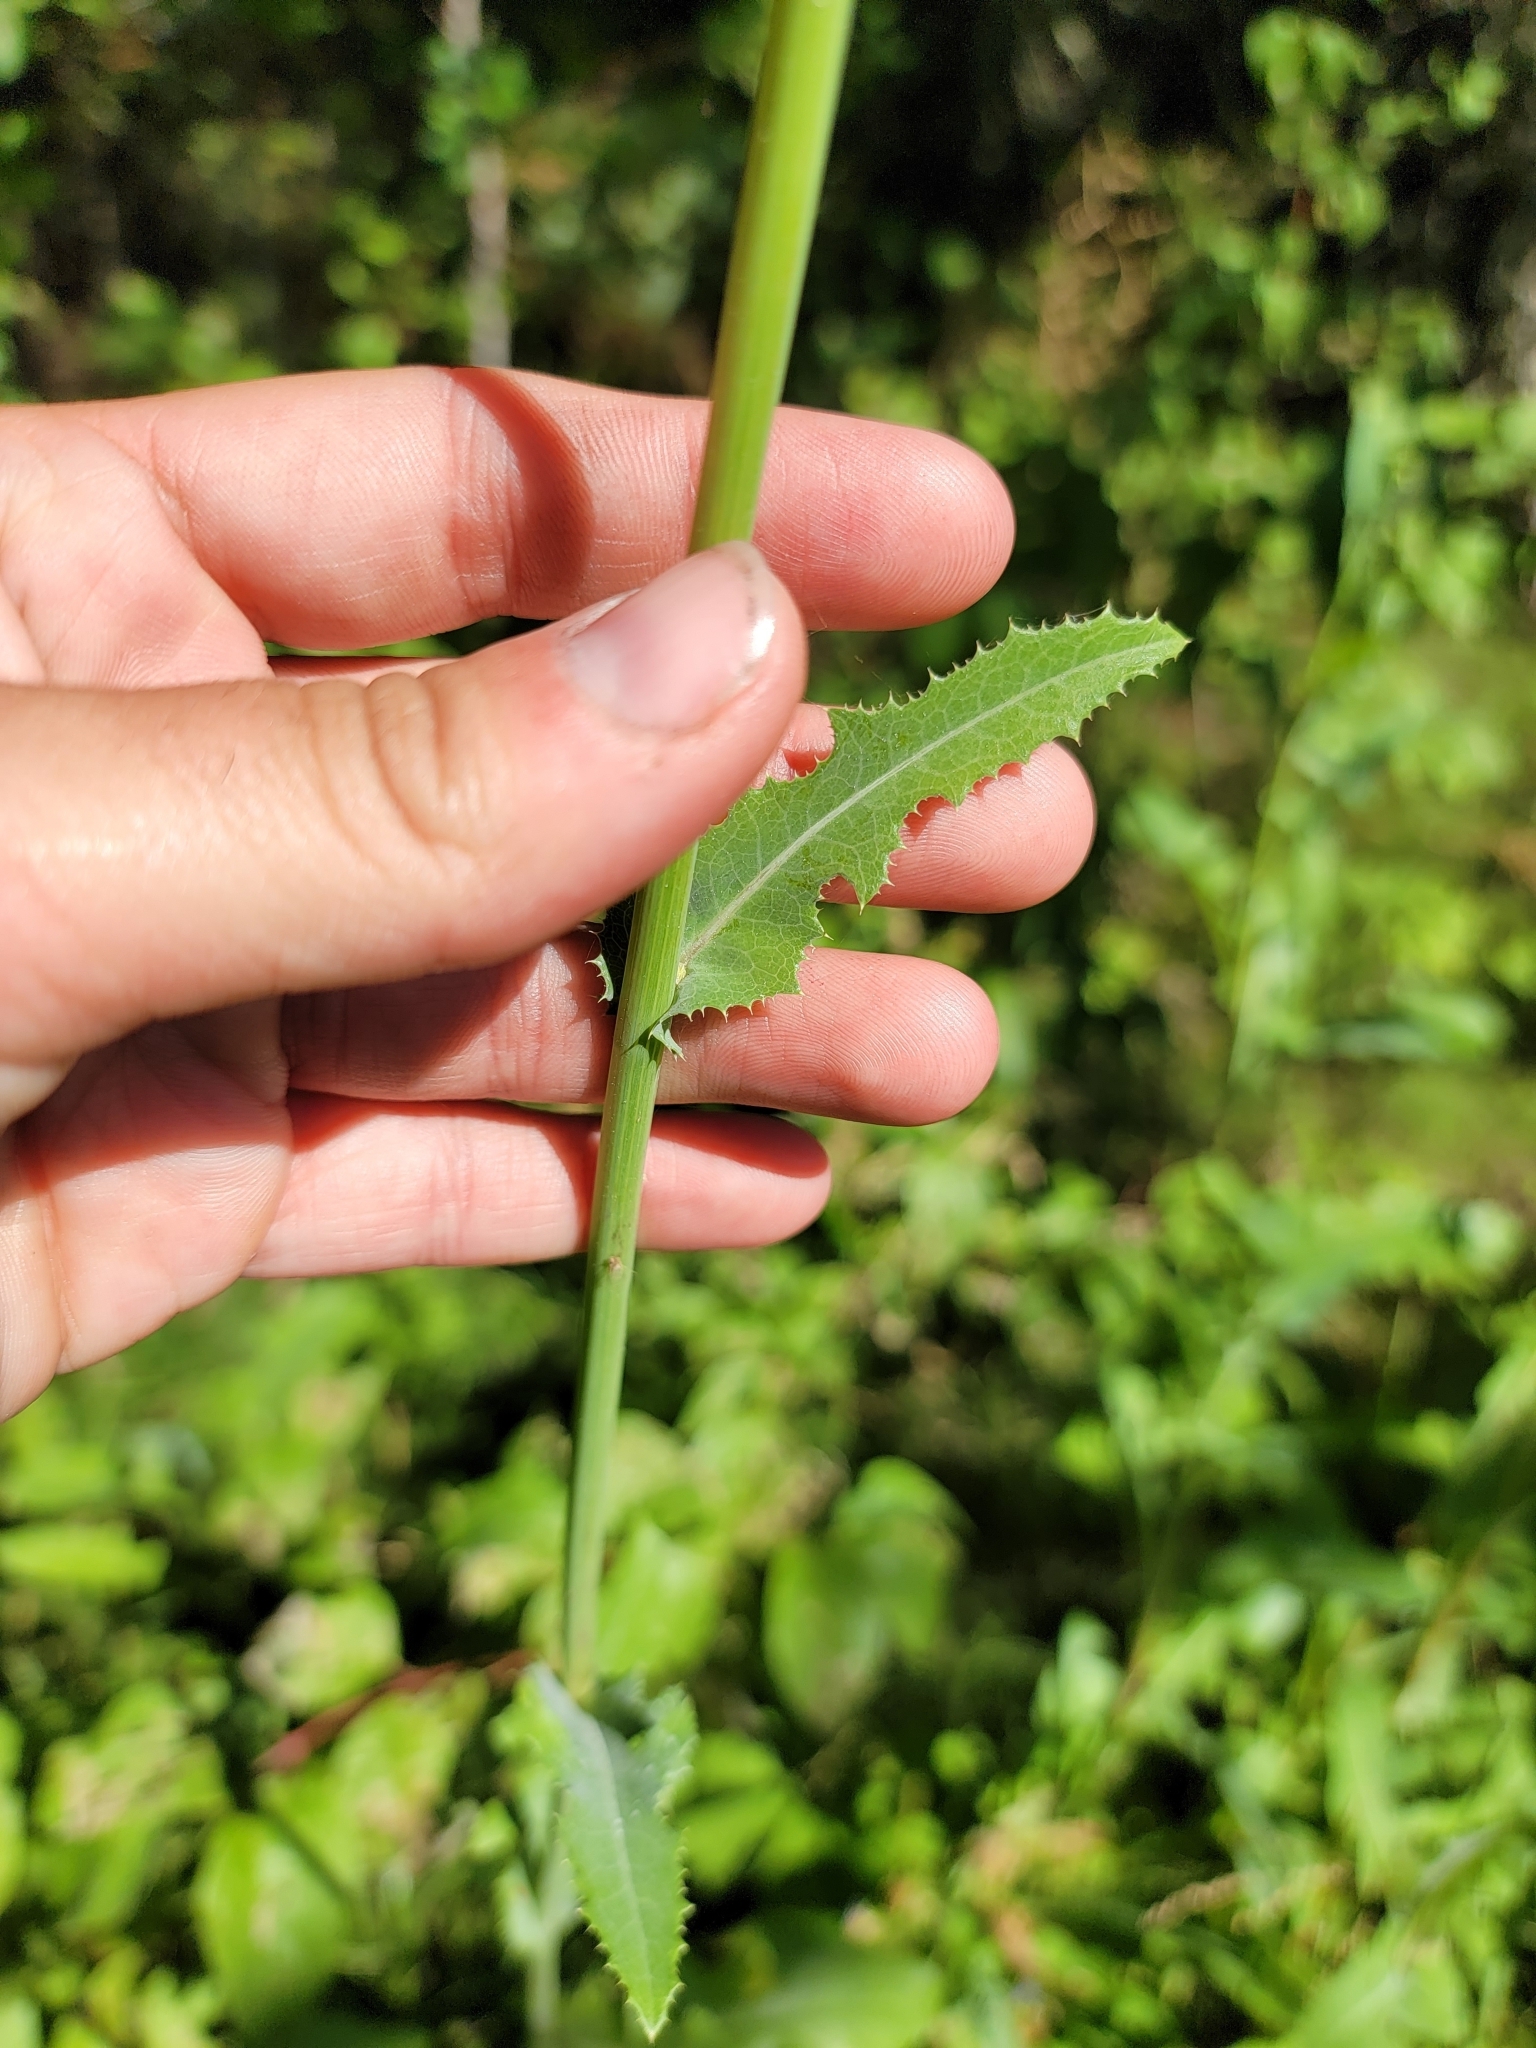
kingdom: Plantae
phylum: Tracheophyta
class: Magnoliopsida
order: Asterales
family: Asteraceae
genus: Sonchus
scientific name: Sonchus arvensis
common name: Perennial sow-thistle
